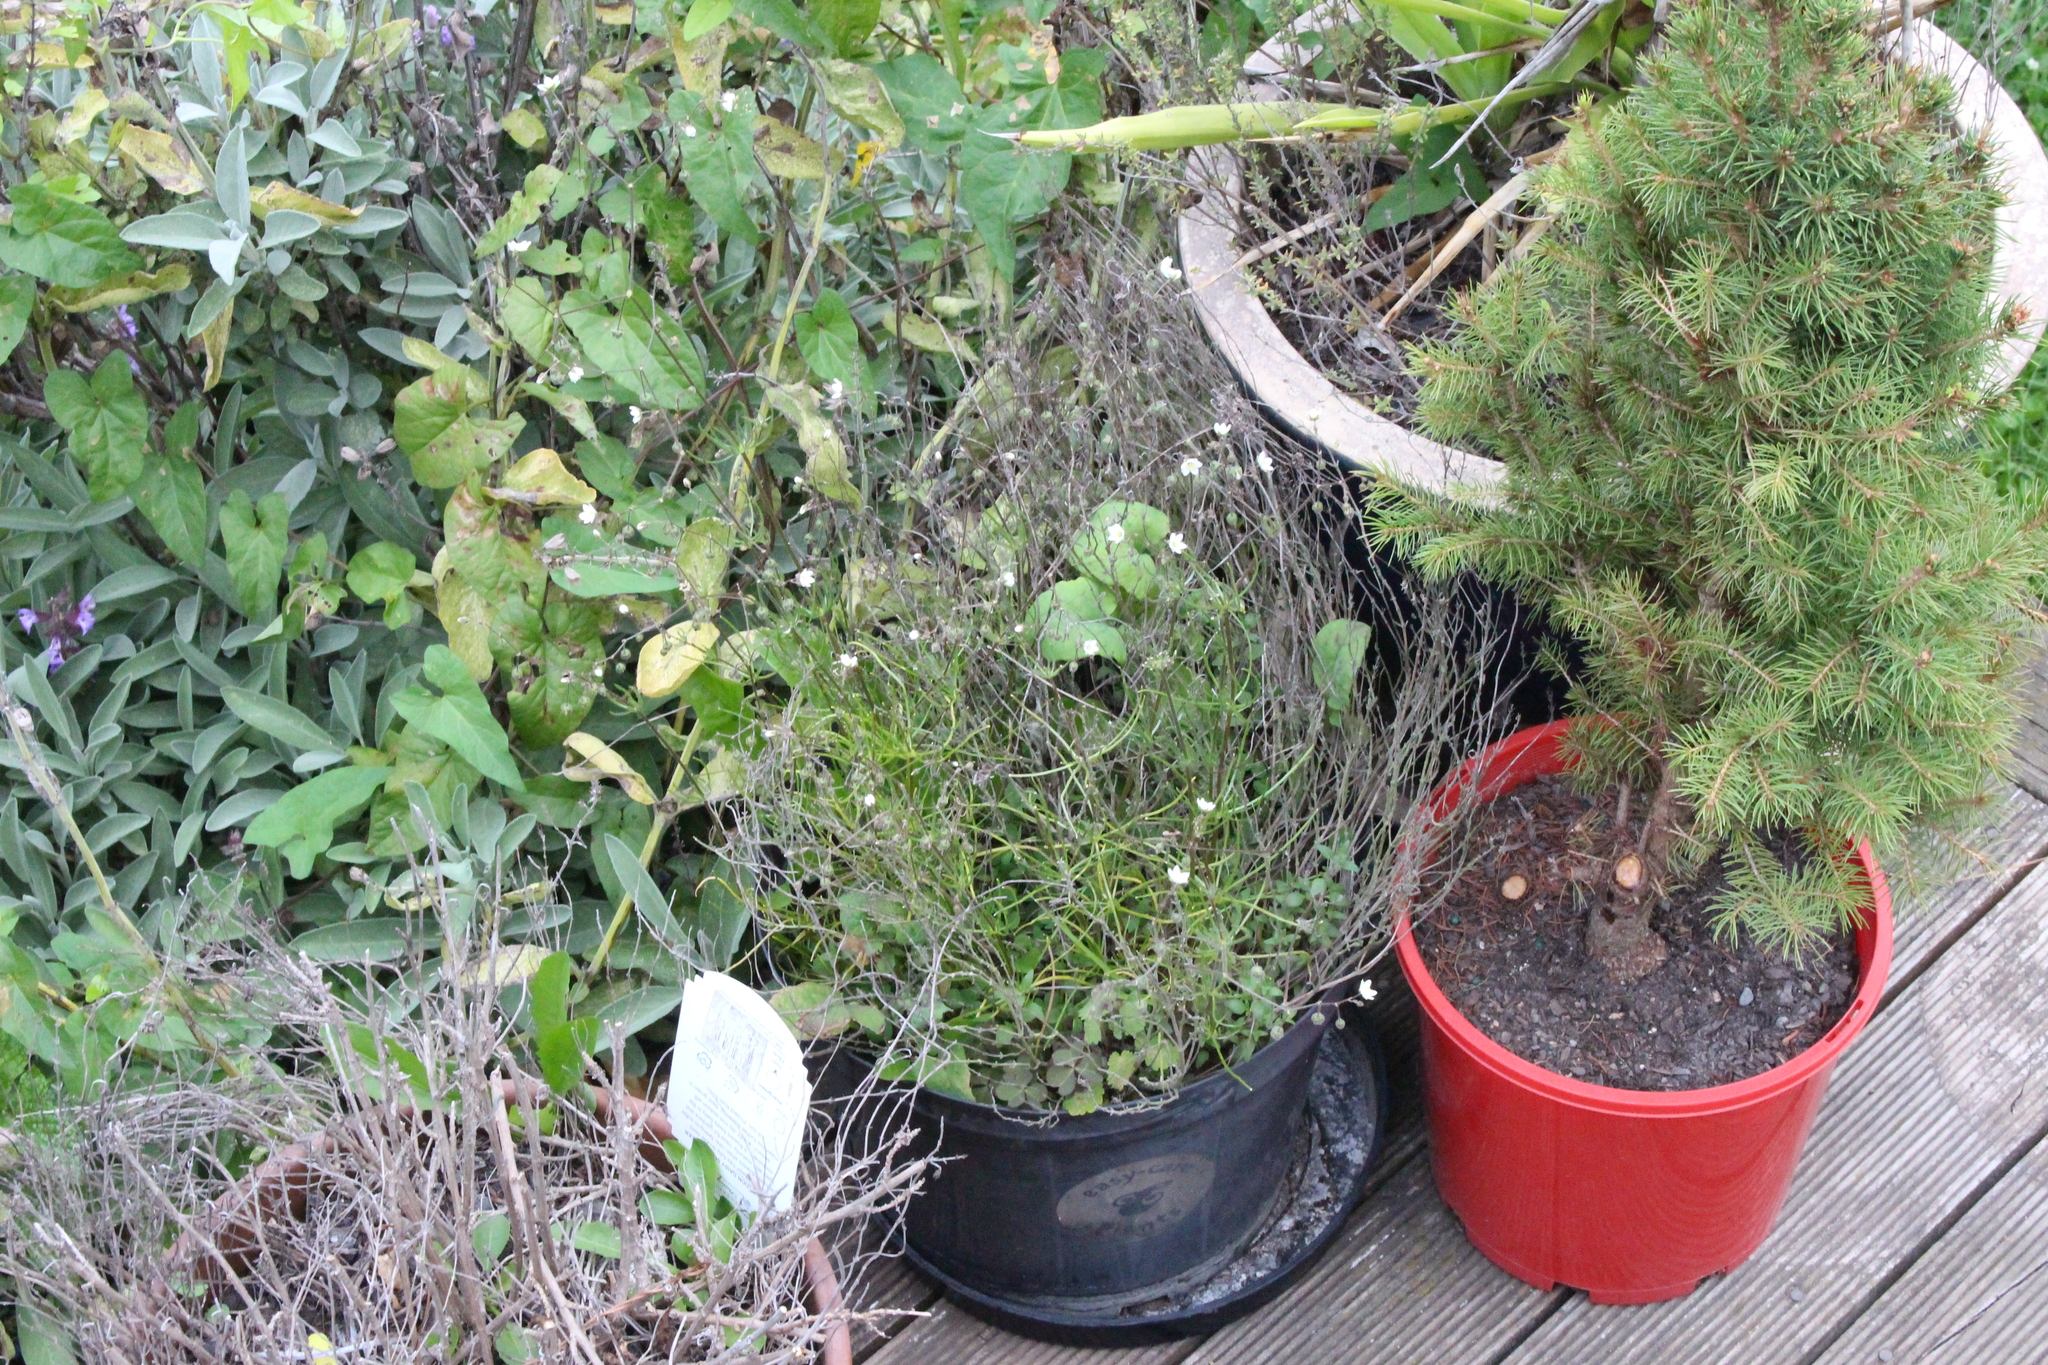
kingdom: Plantae
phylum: Tracheophyta
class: Magnoliopsida
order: Caryophyllales
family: Caryophyllaceae
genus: Spergula
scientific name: Spergula arvensis
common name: Corn spurrey
